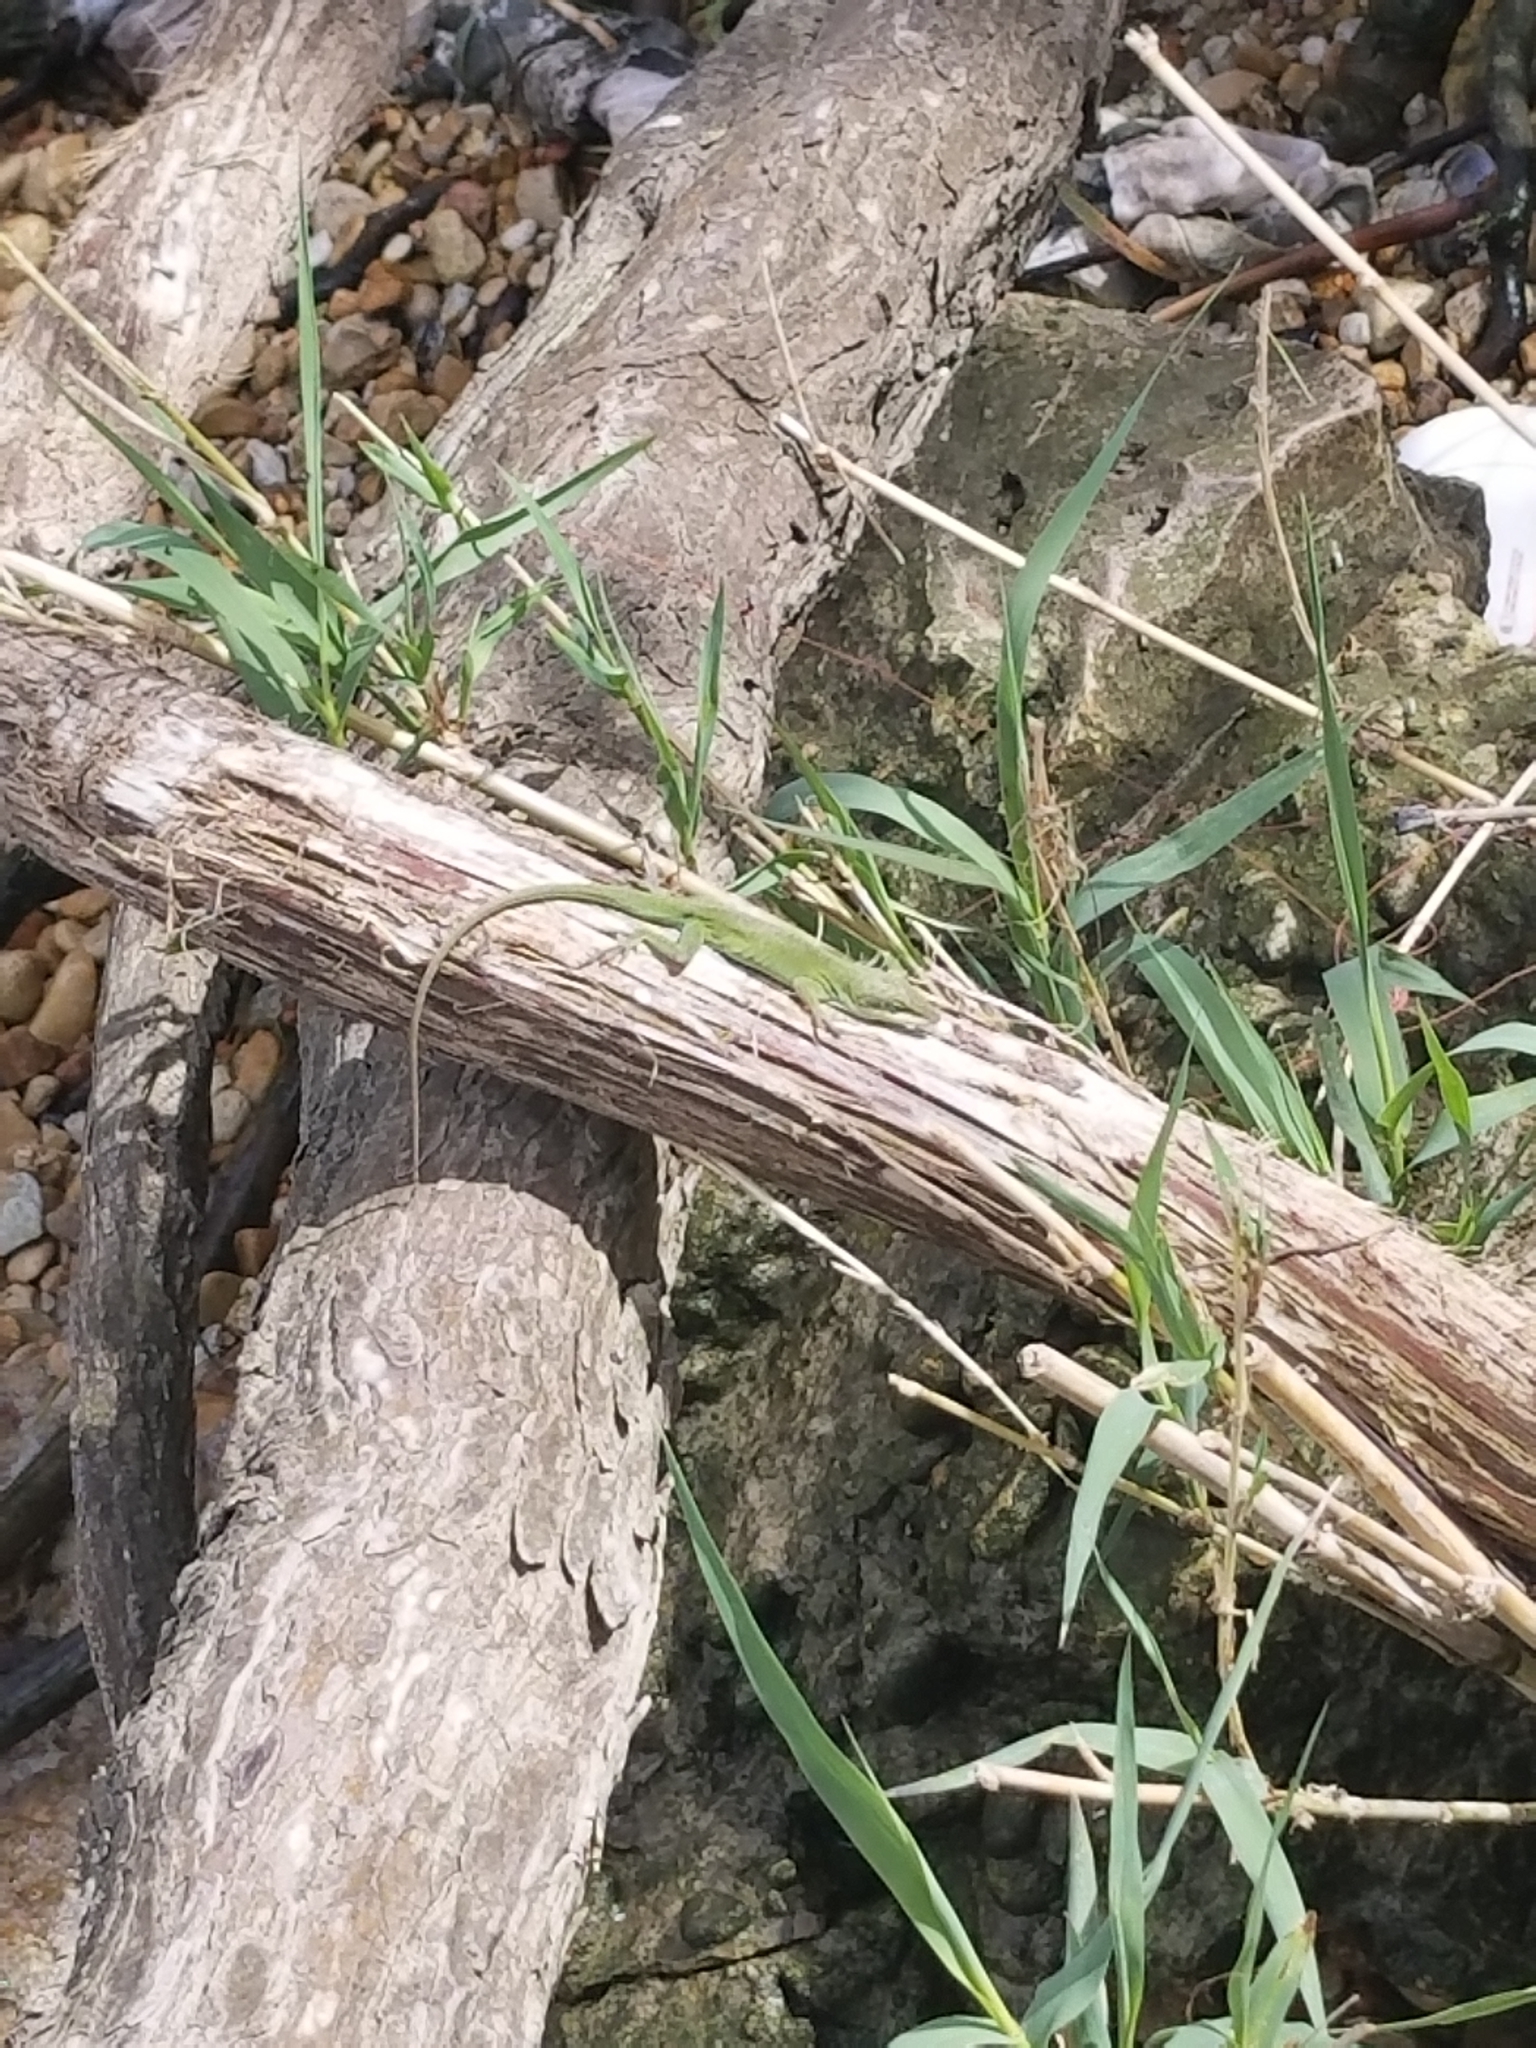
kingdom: Animalia
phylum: Chordata
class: Squamata
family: Dactyloidae
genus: Anolis
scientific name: Anolis carolinensis
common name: Green anole
